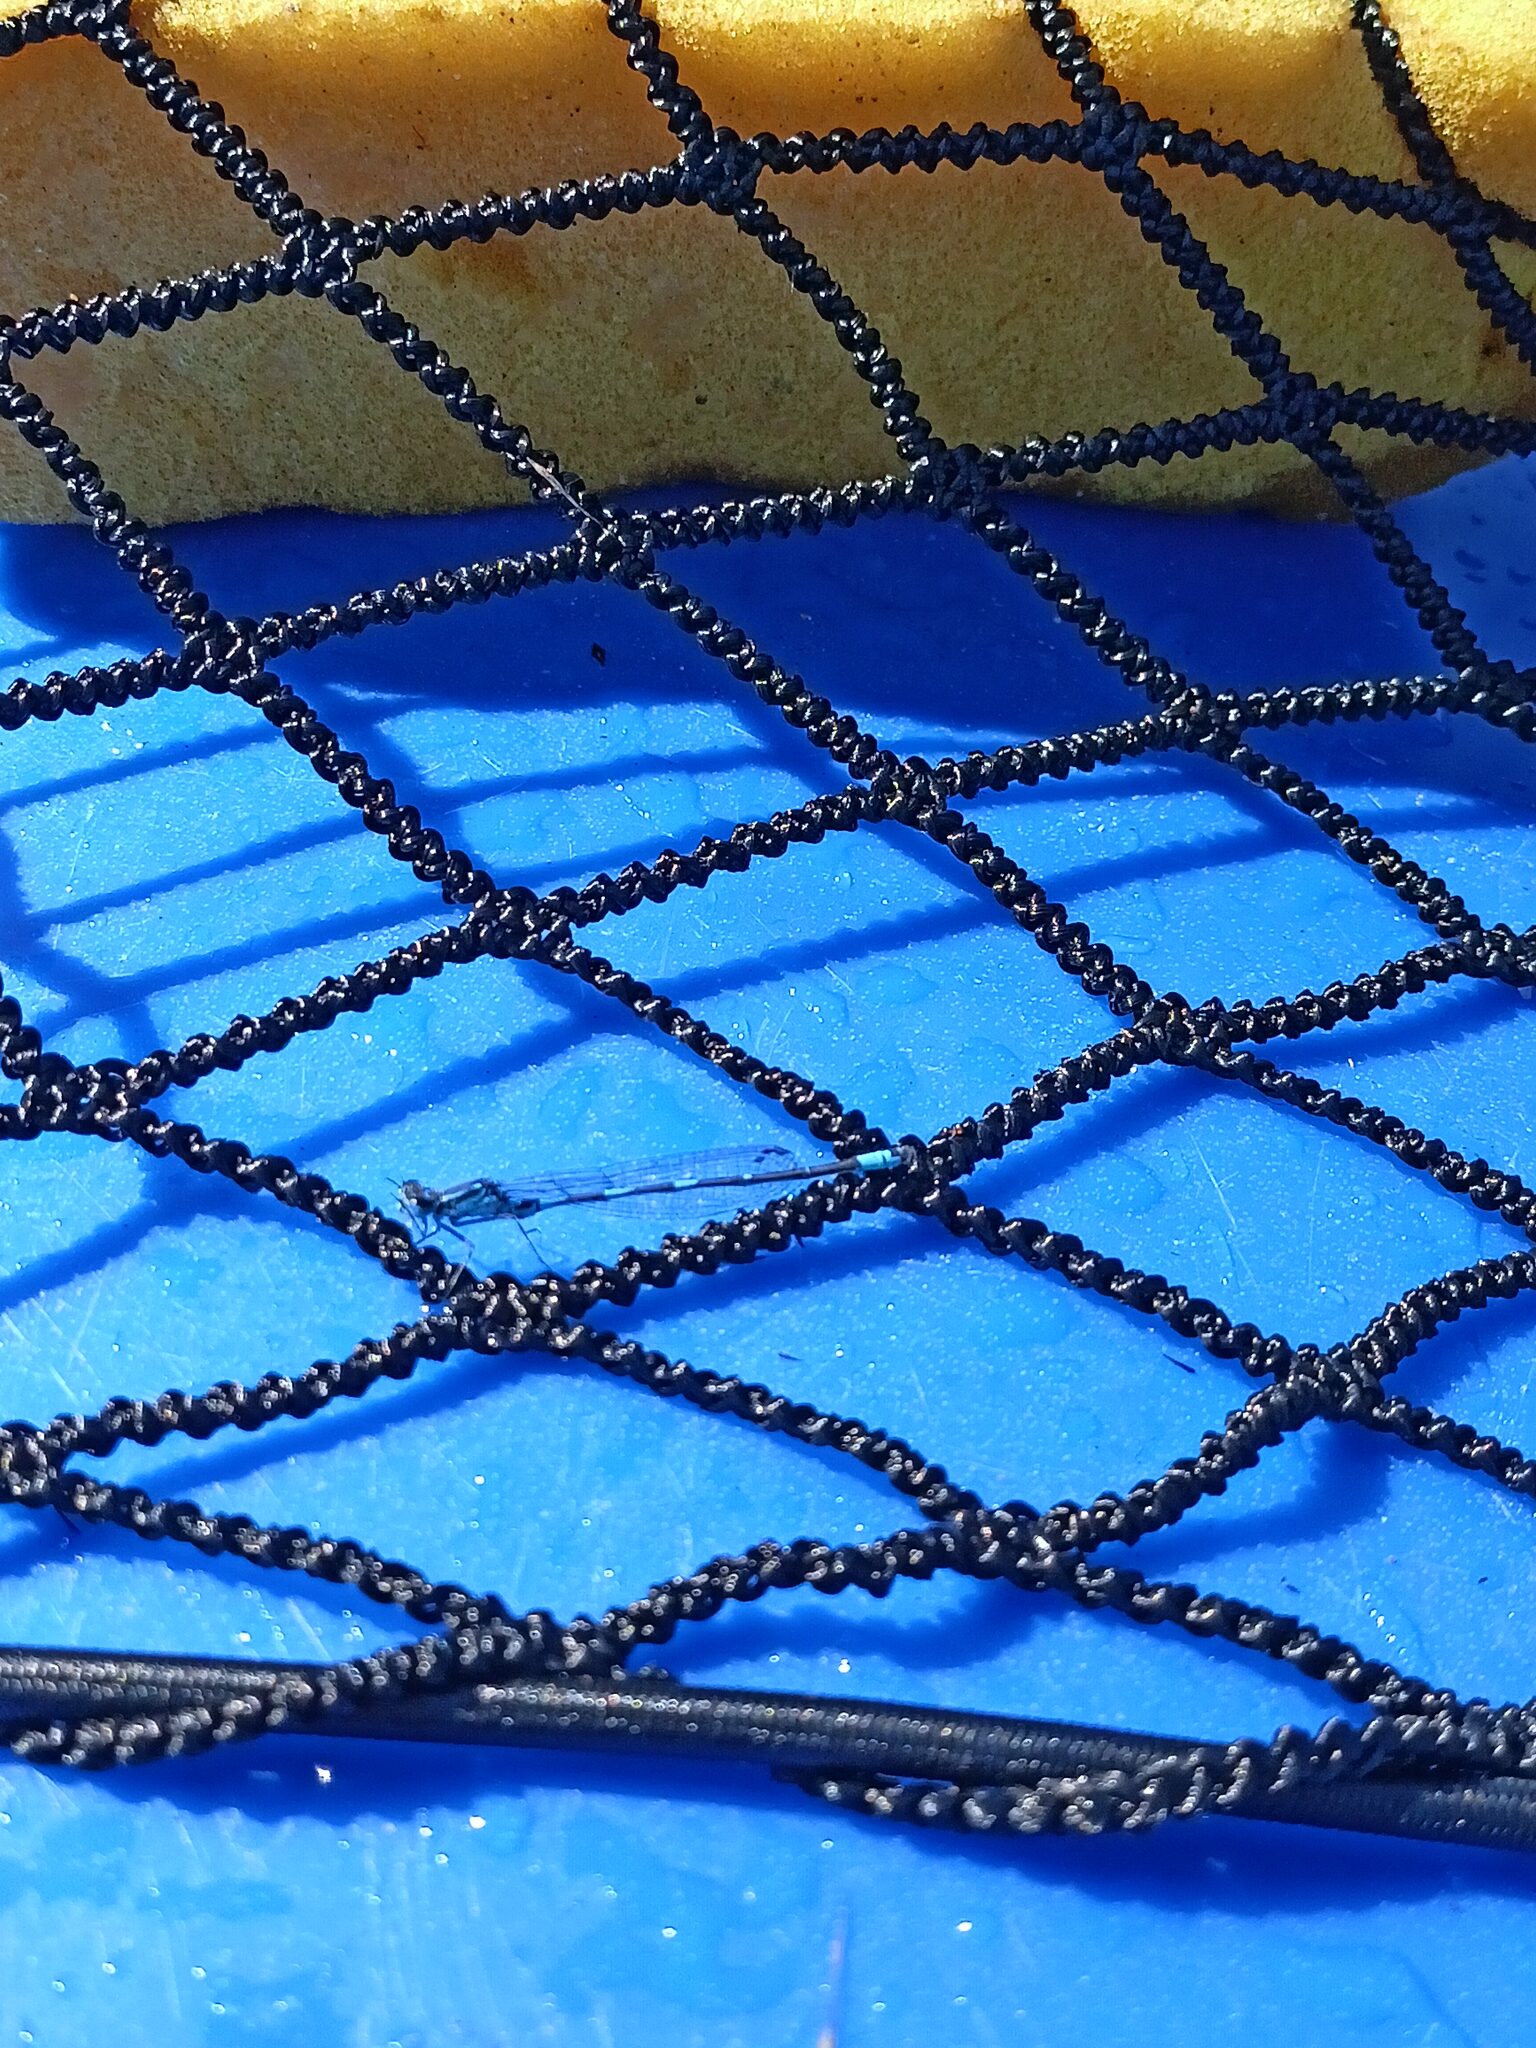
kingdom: Animalia
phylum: Arthropoda
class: Insecta
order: Odonata
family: Coenagrionidae
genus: Coenagrion
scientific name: Coenagrion pulchellum
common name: Variable bluet
